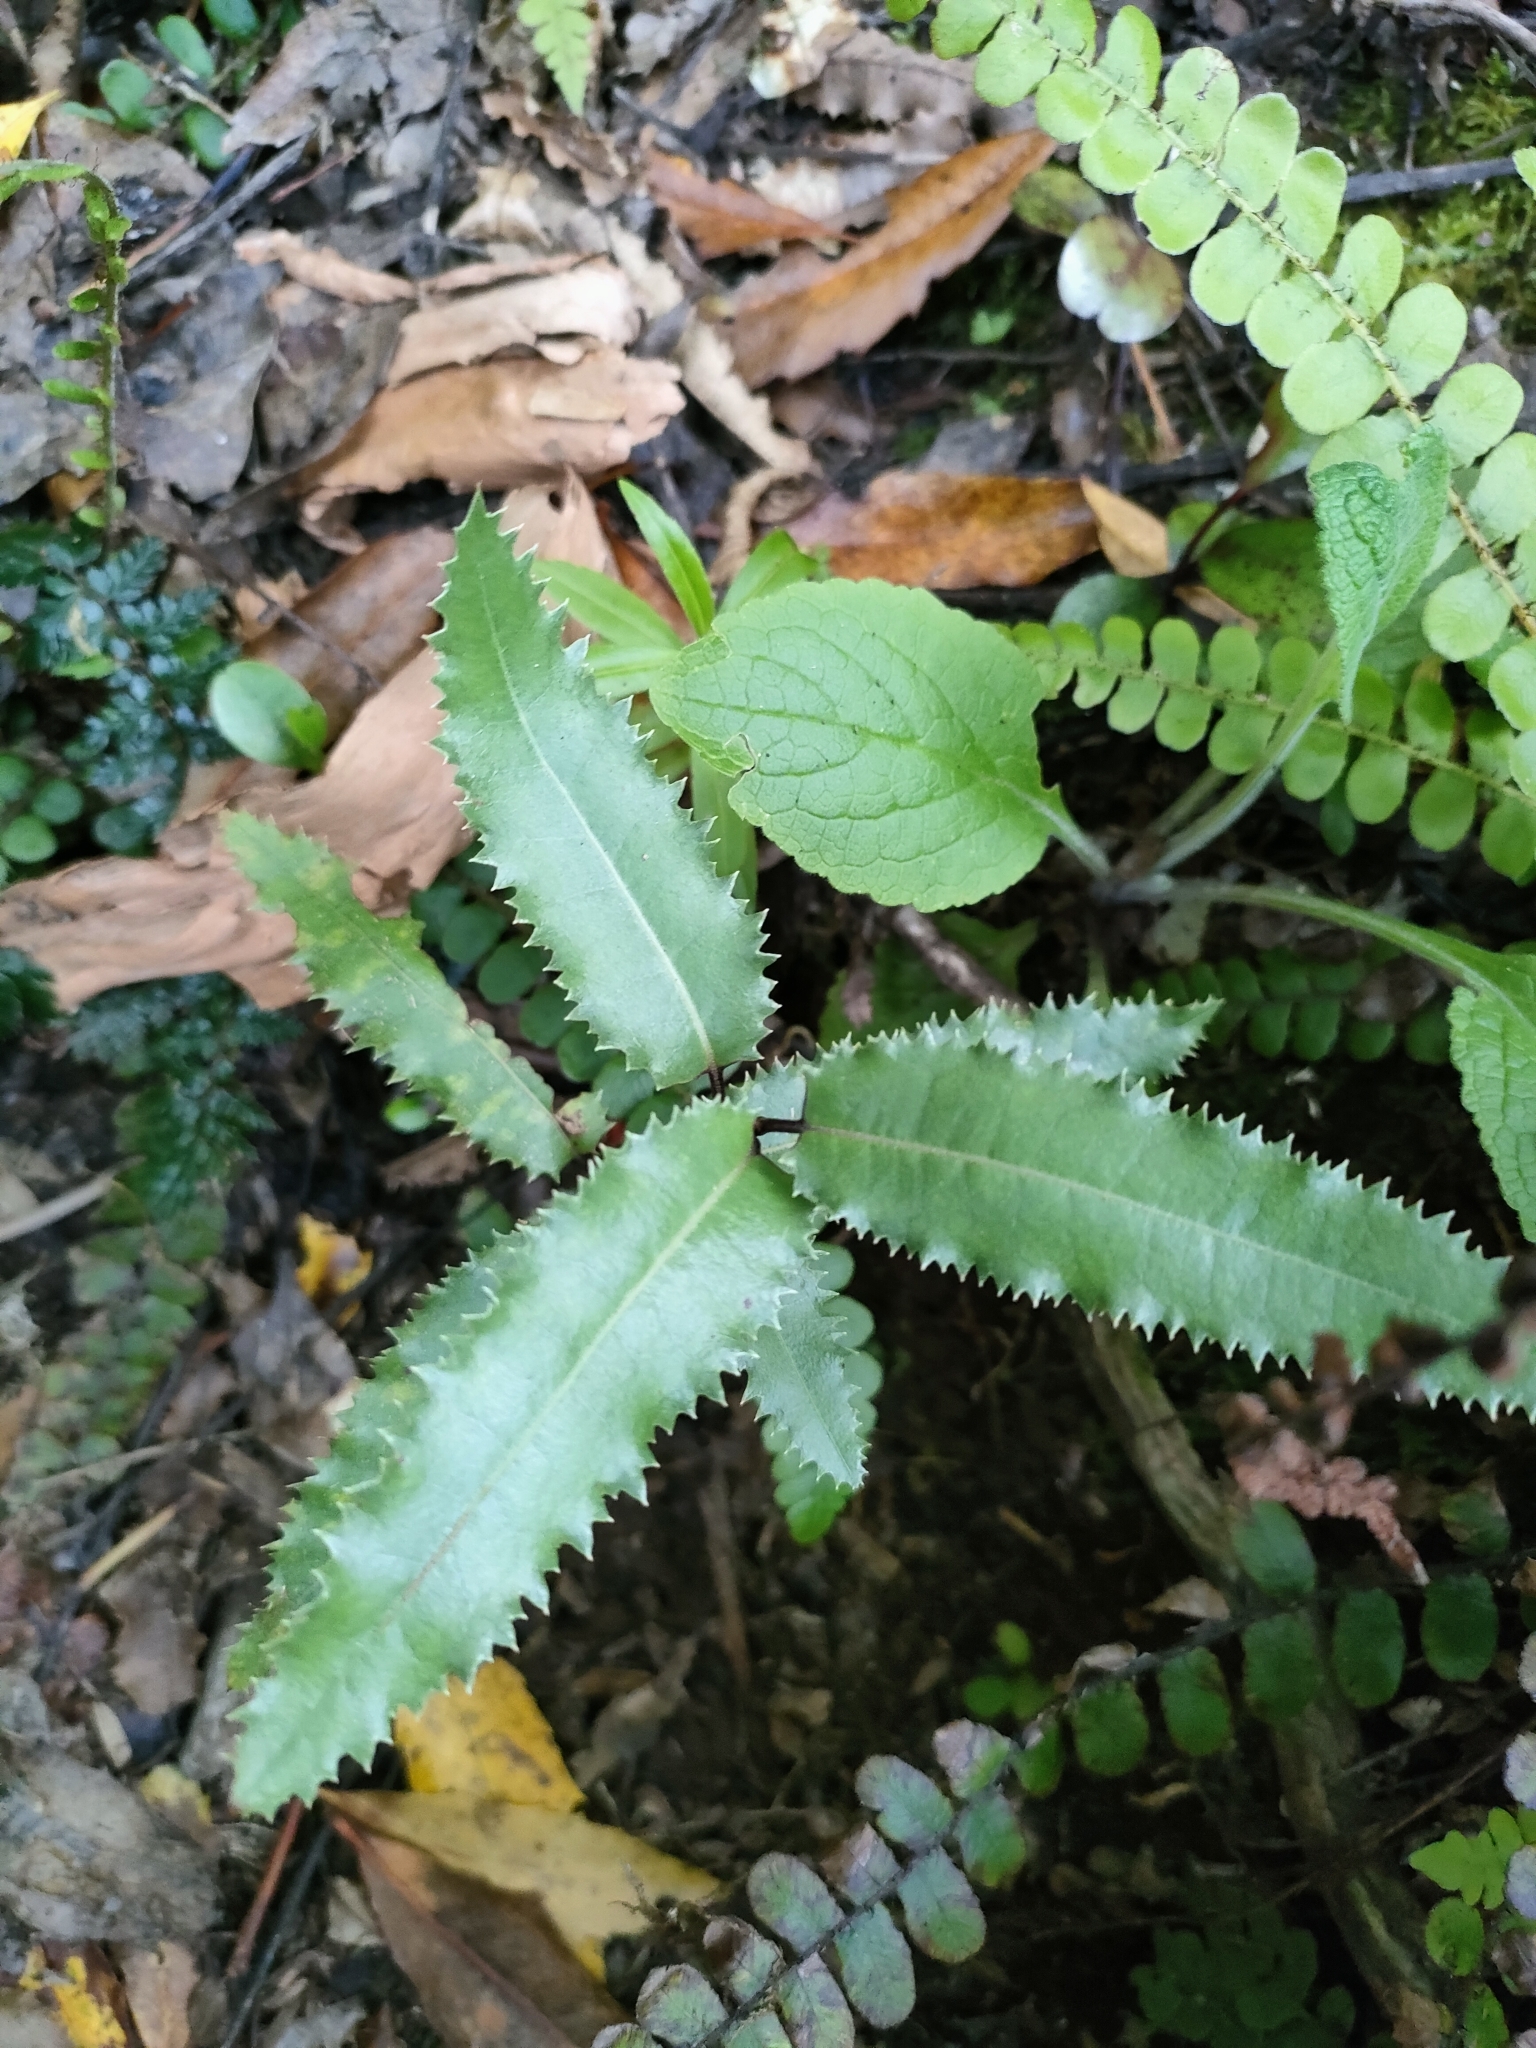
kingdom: Plantae
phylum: Tracheophyta
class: Magnoliopsida
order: Asterales
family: Asteraceae
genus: Olearia
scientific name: Olearia ilicifolia
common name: Maori-holly
